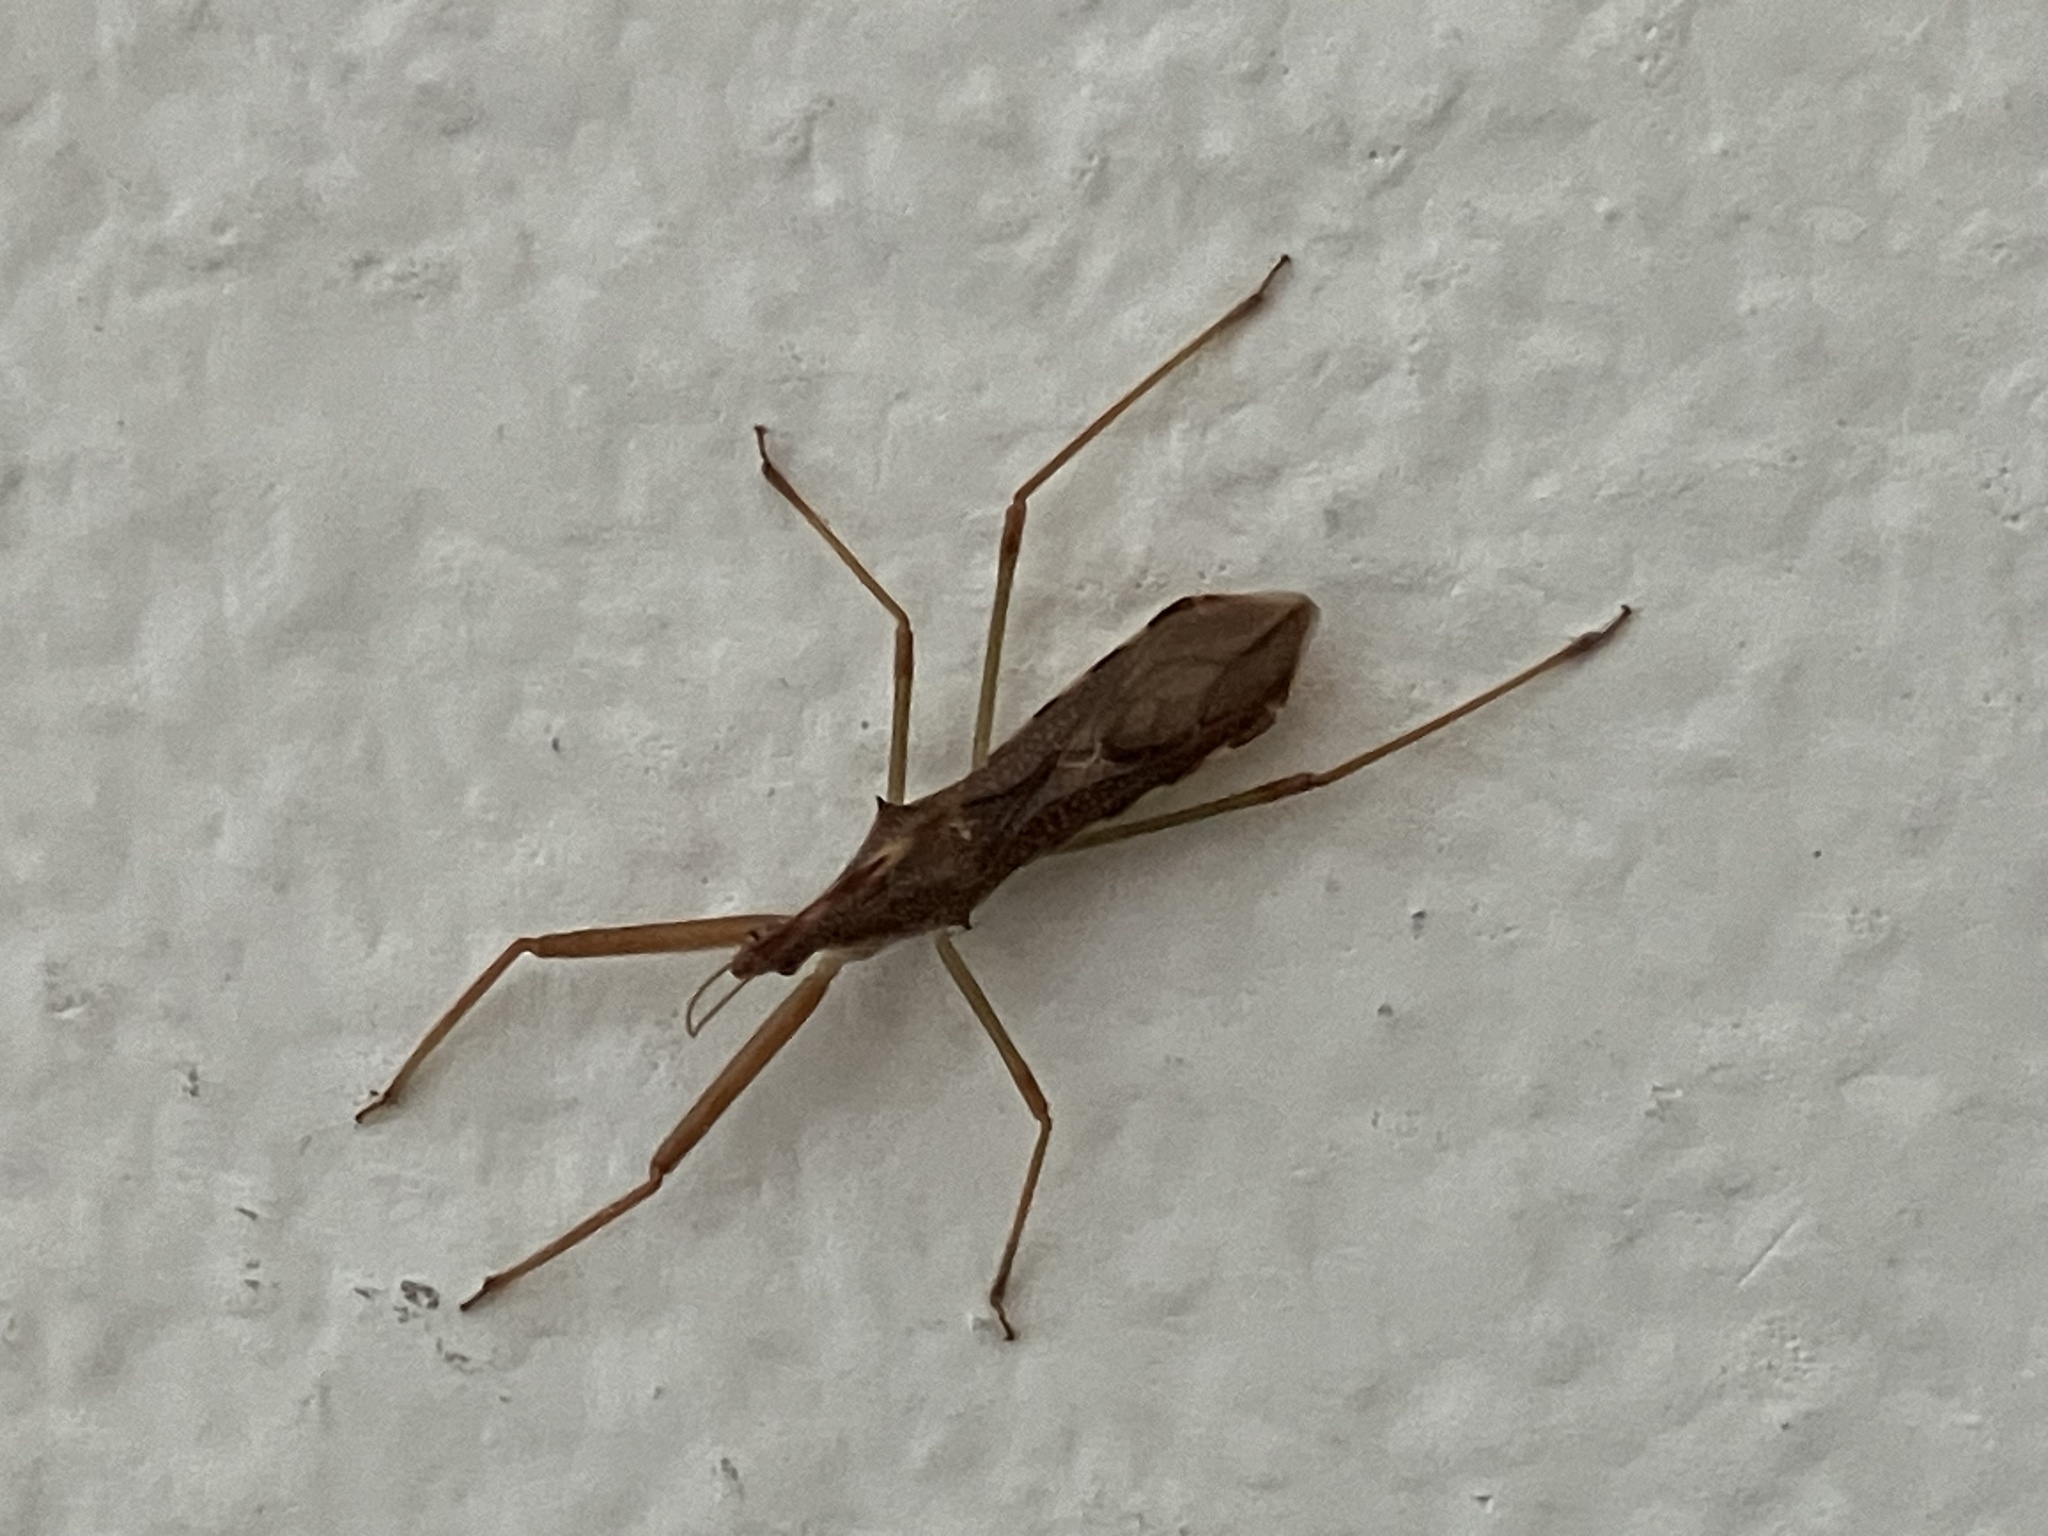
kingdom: Animalia
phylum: Arthropoda
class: Insecta
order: Hemiptera
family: Reduviidae
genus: Nagusta
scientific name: Nagusta goedelii
